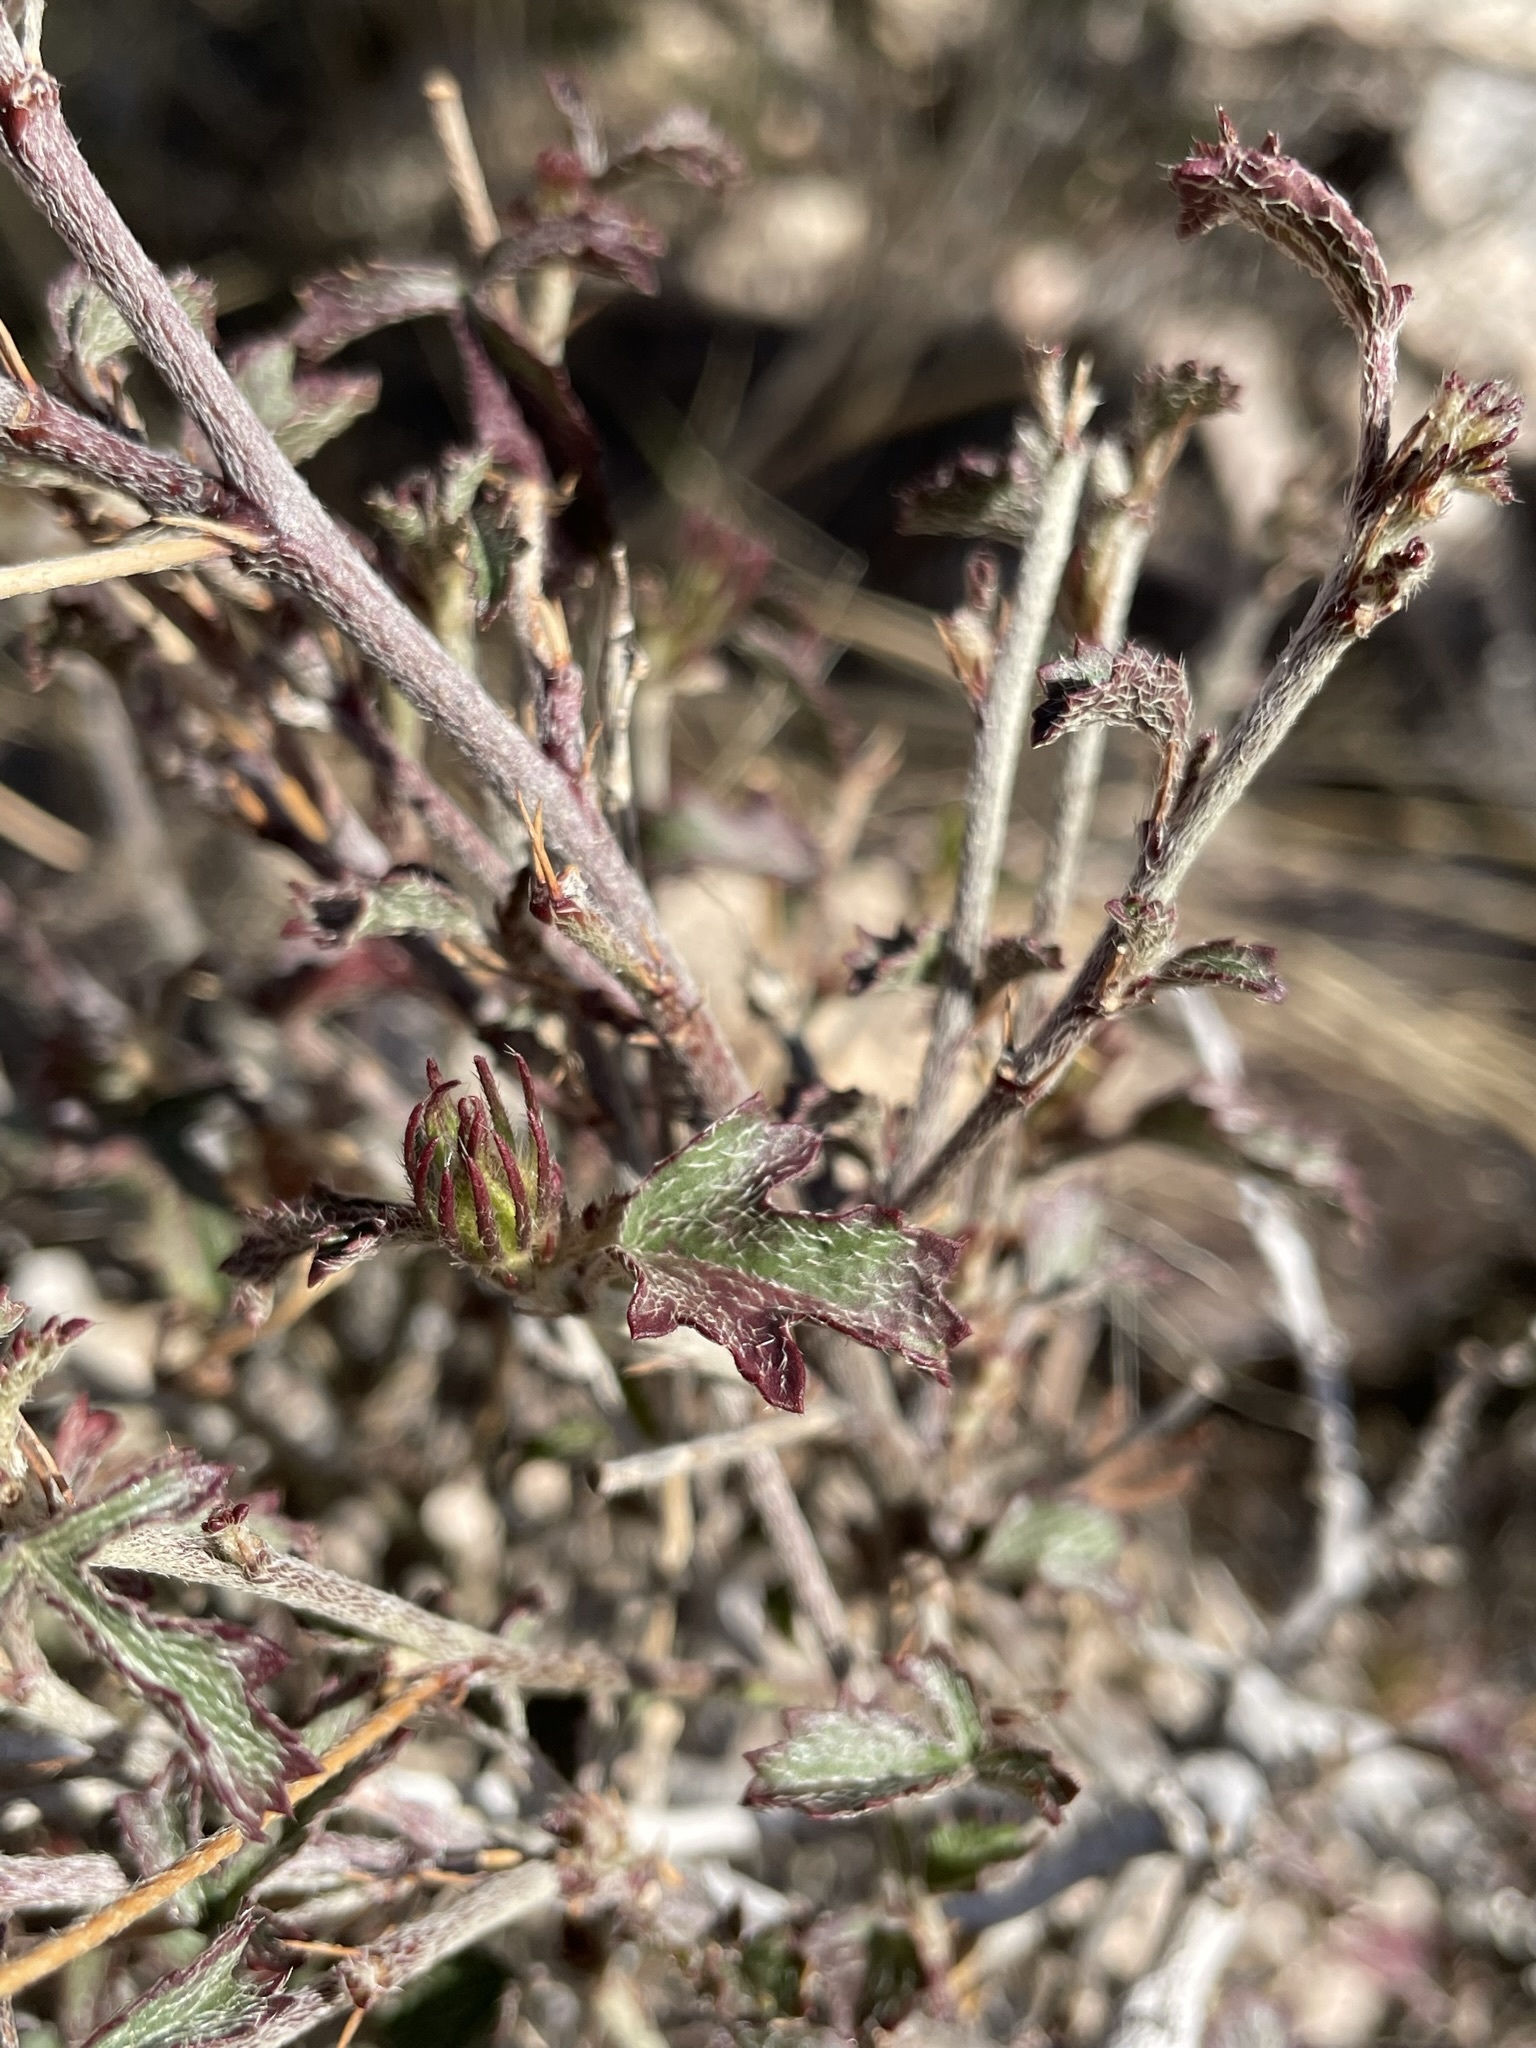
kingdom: Plantae
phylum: Tracheophyta
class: Magnoliopsida
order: Malvales
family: Malvaceae
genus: Hibiscus
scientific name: Hibiscus coulteri
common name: Desert rose-mallow
